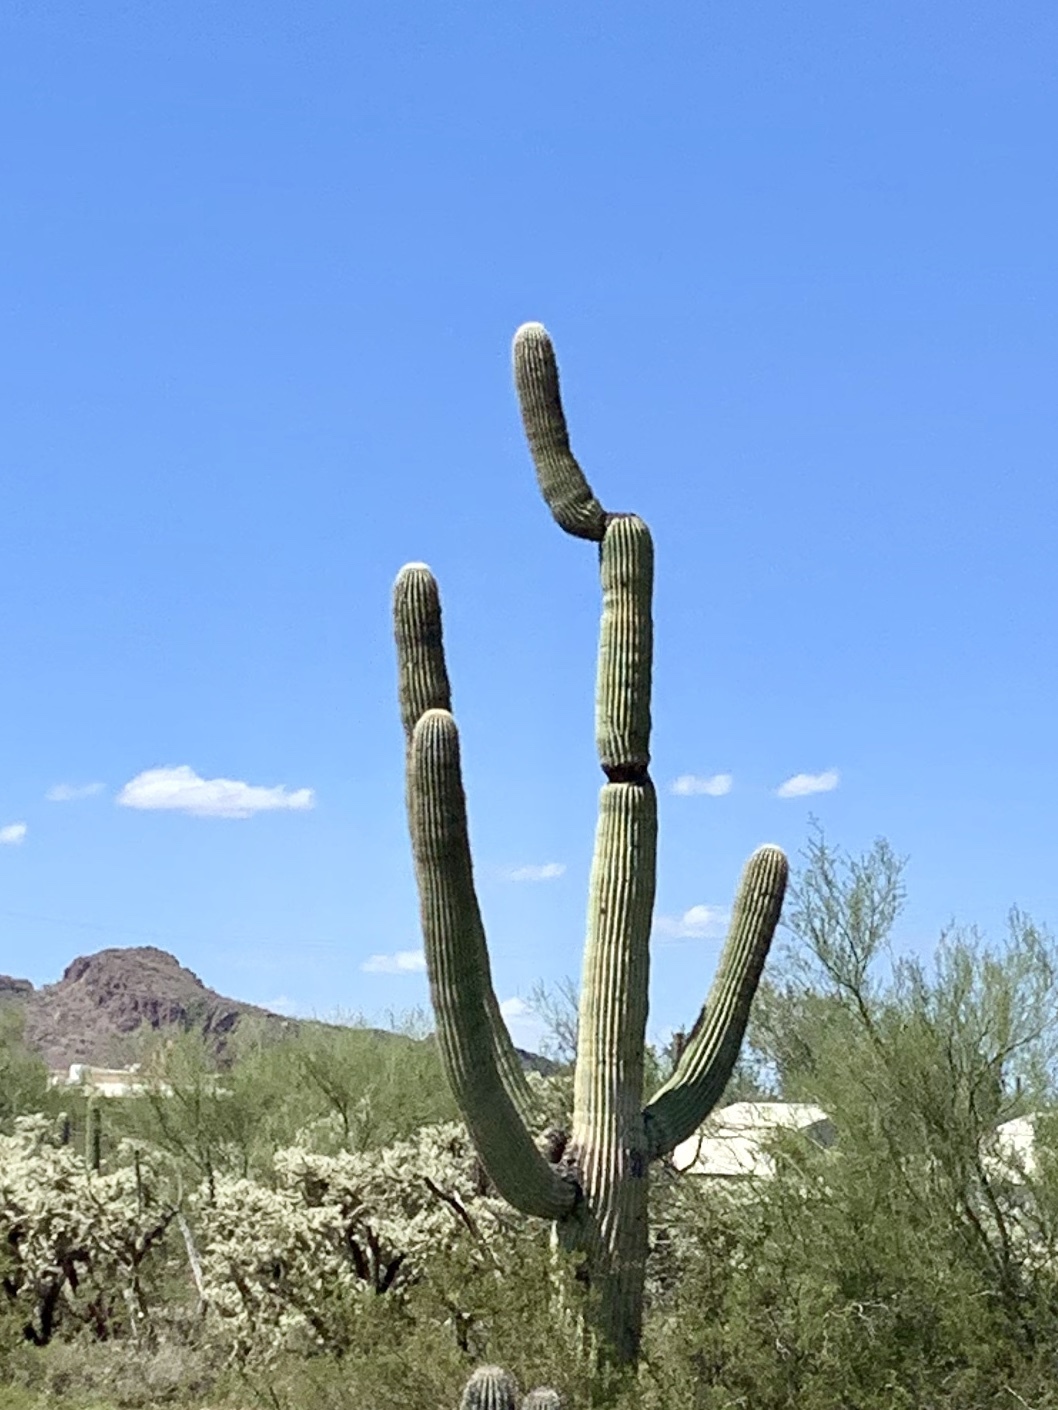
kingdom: Plantae
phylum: Tracheophyta
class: Magnoliopsida
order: Caryophyllales
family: Cactaceae
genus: Carnegiea
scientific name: Carnegiea gigantea
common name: Saguaro
